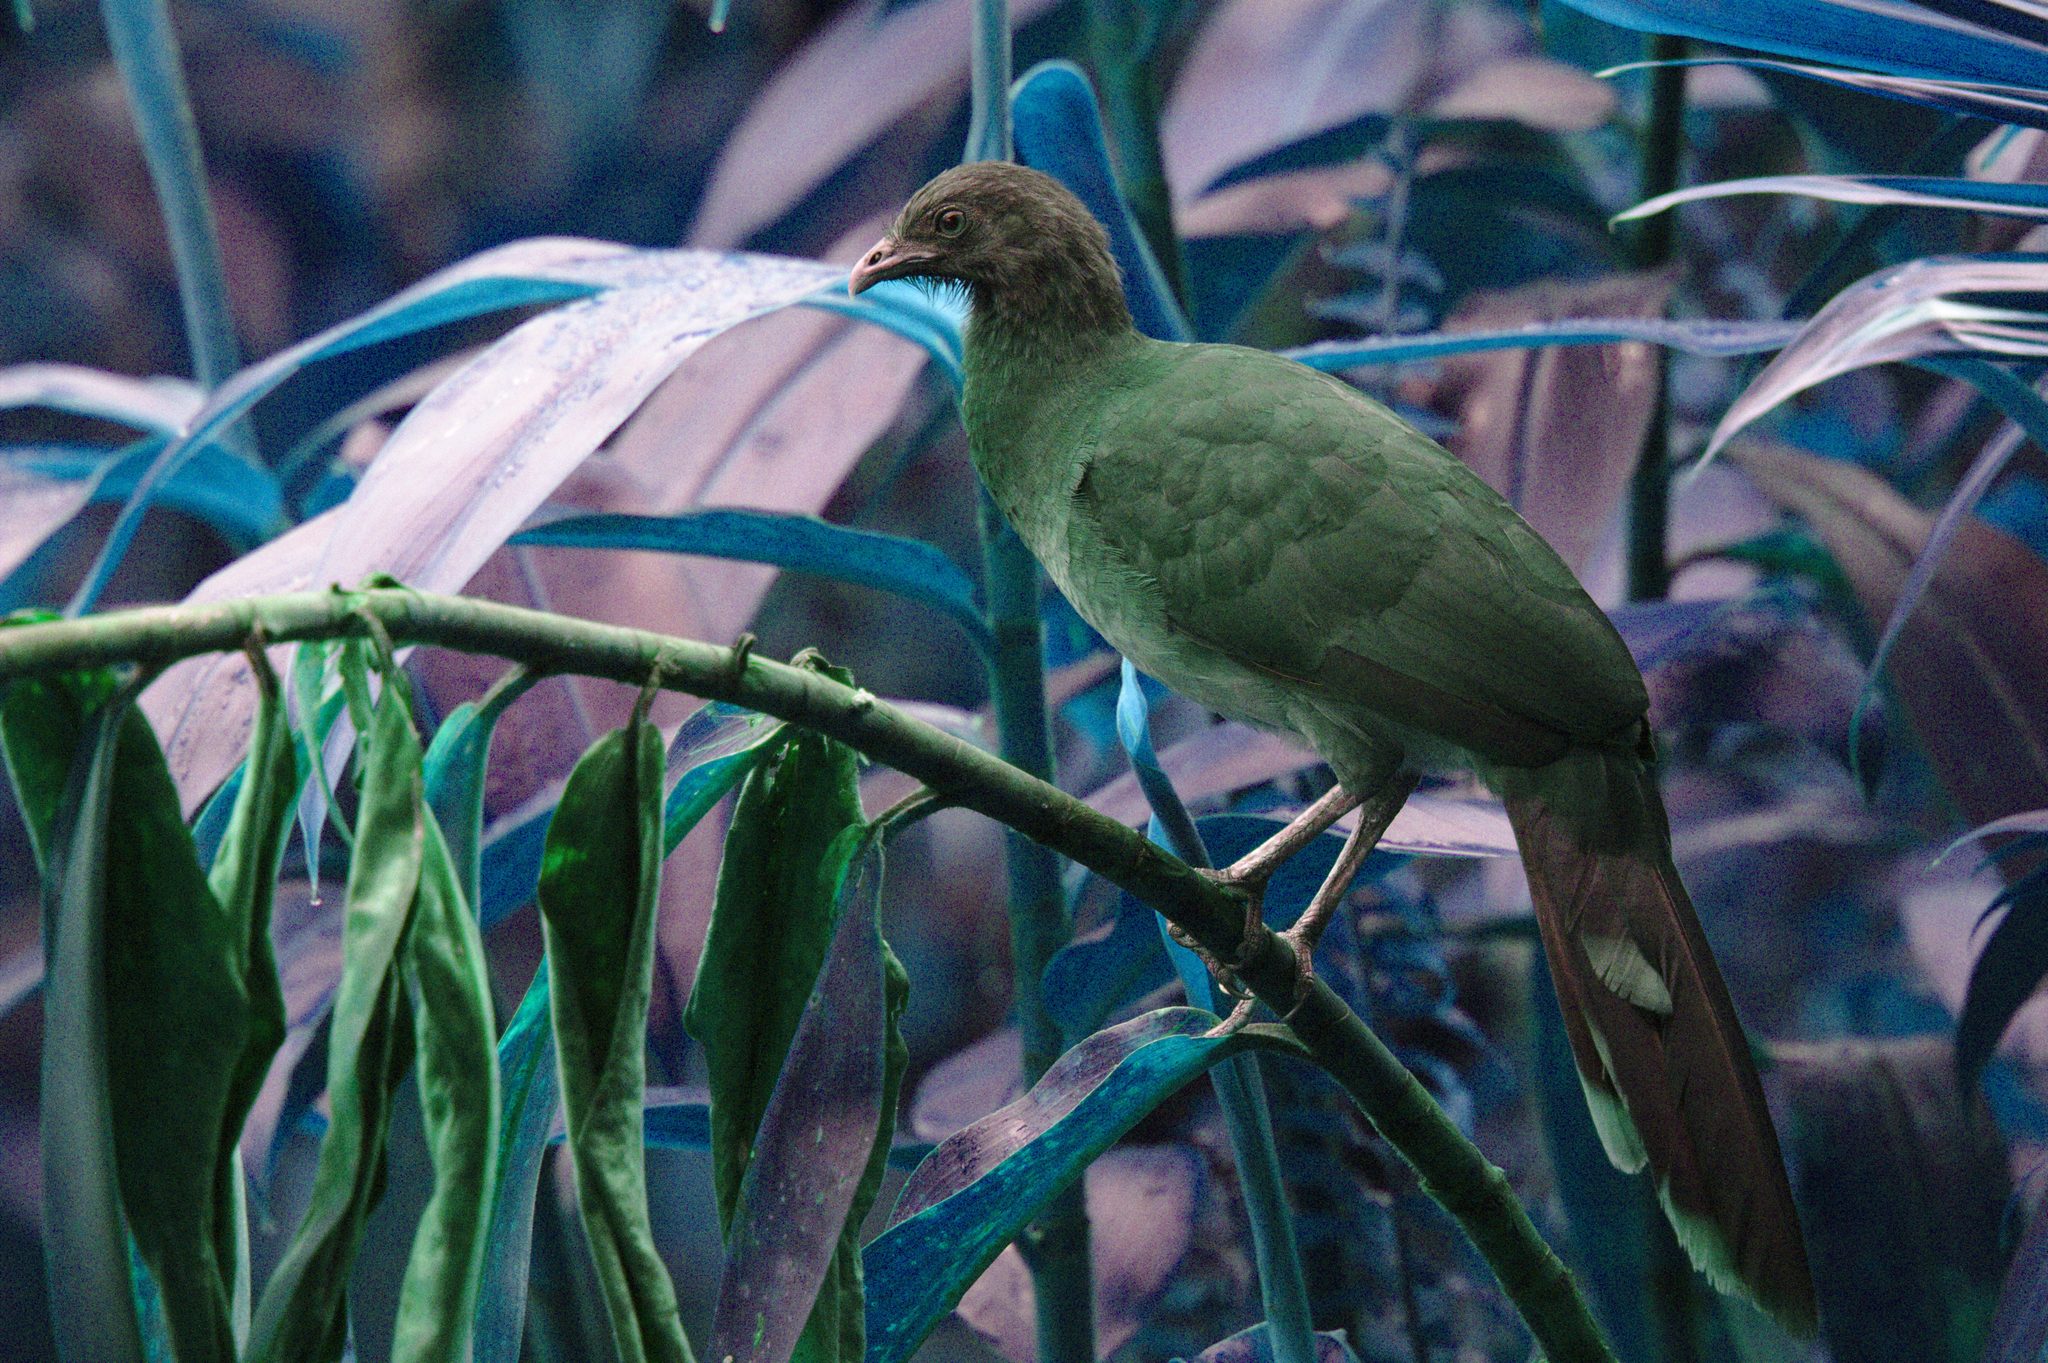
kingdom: Animalia
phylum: Chordata
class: Aves
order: Galliformes
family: Cracidae
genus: Ortalis
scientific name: Ortalis cinereiceps
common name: Grey-headed chachalaca
